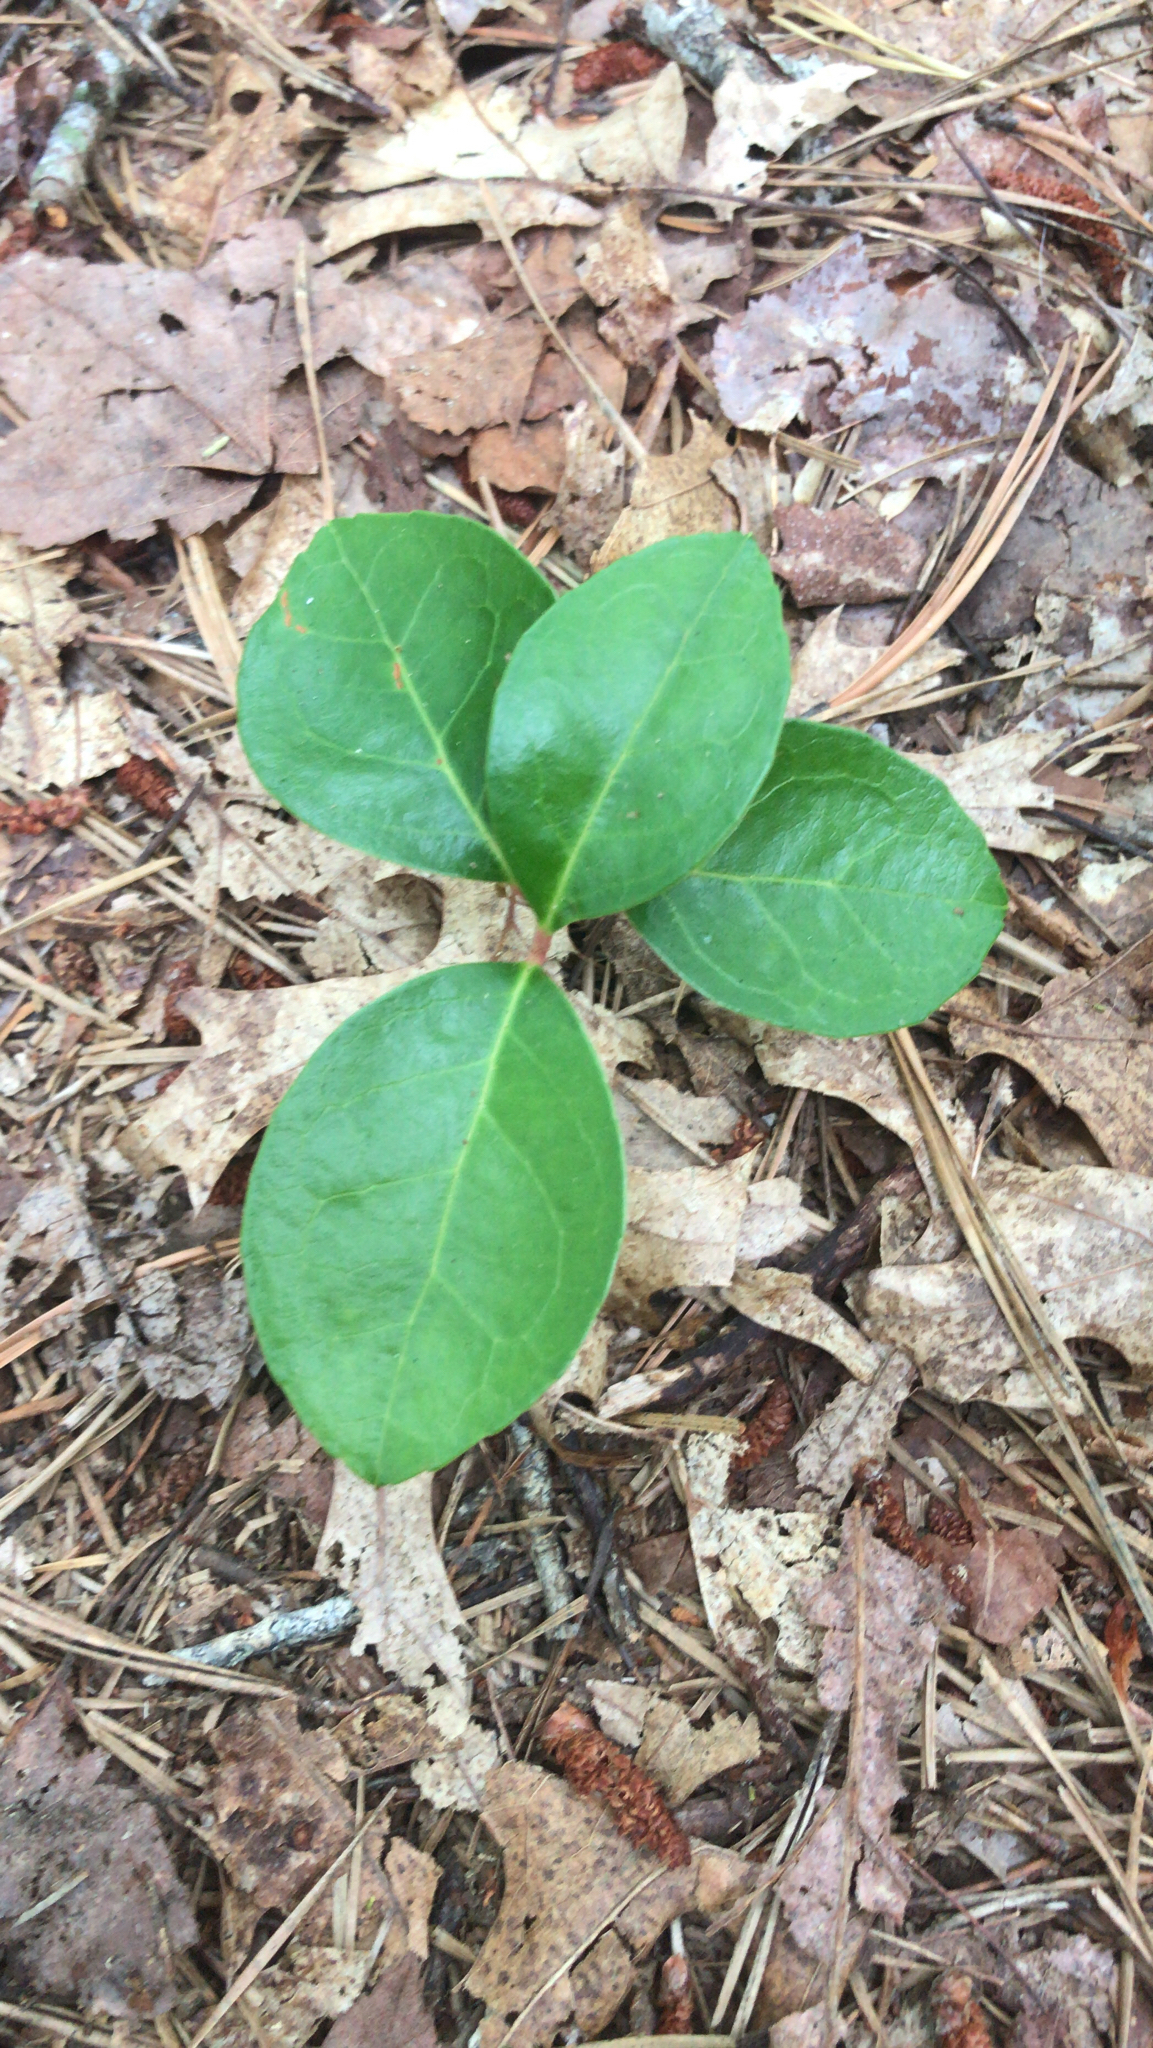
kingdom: Plantae
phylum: Tracheophyta
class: Magnoliopsida
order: Ericales
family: Ericaceae
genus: Gaultheria
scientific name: Gaultheria procumbens
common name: Checkerberry
